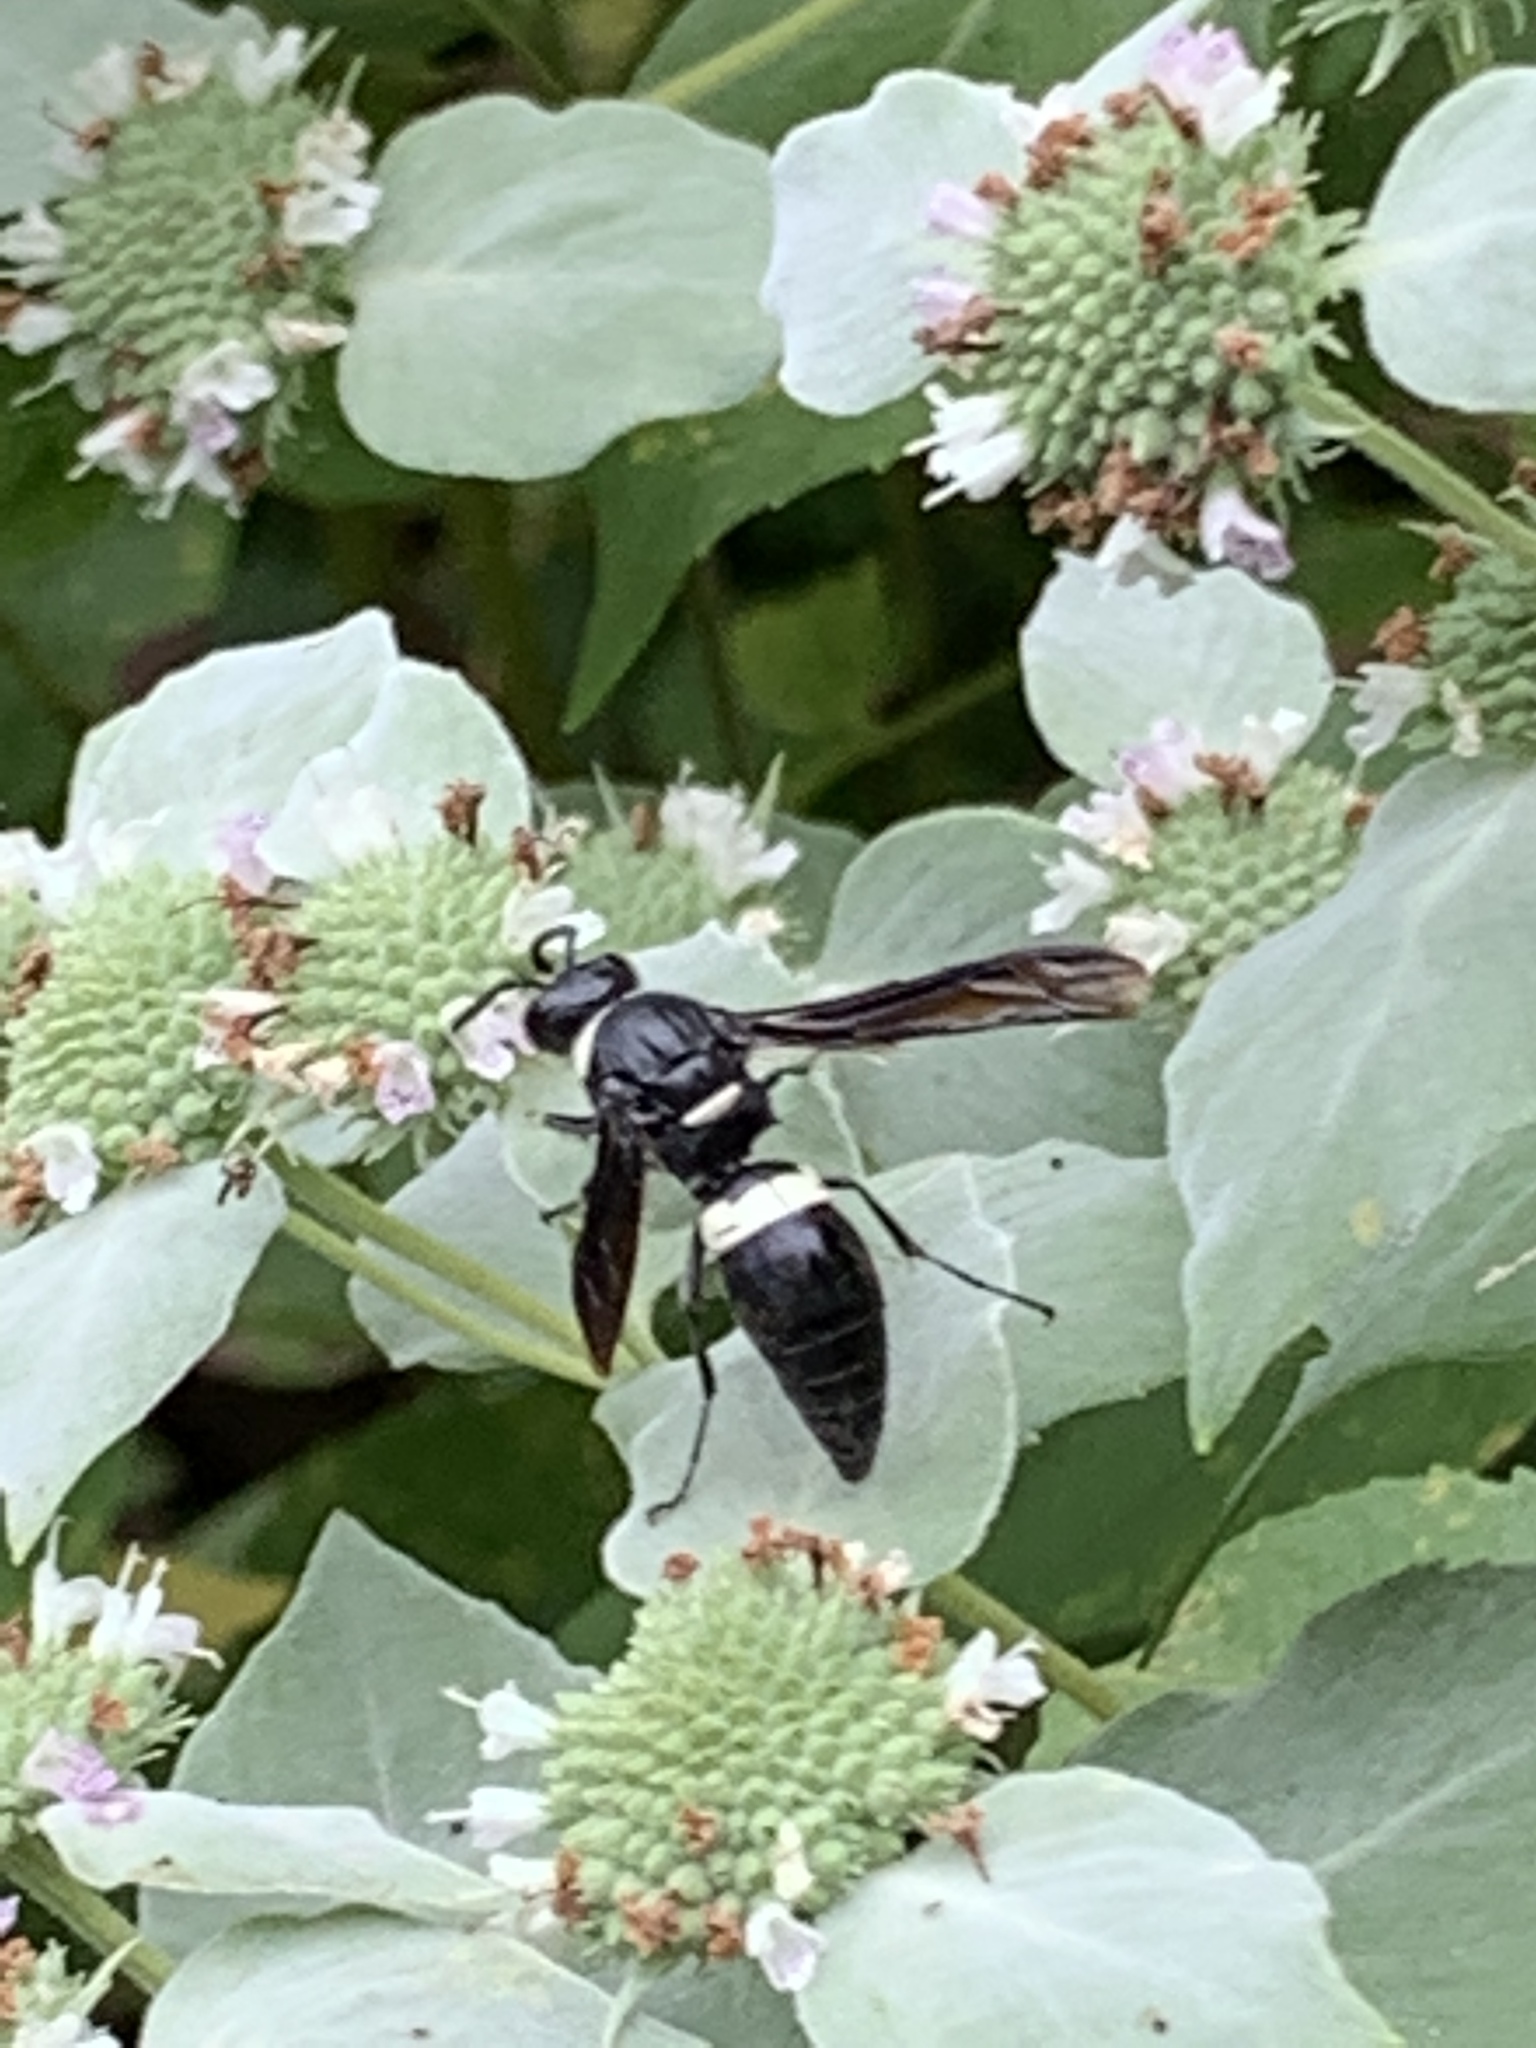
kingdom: Animalia
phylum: Arthropoda
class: Insecta
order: Hymenoptera
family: Eumenidae
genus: Monobia
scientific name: Monobia quadridens
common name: Four-toothed mason wasp
